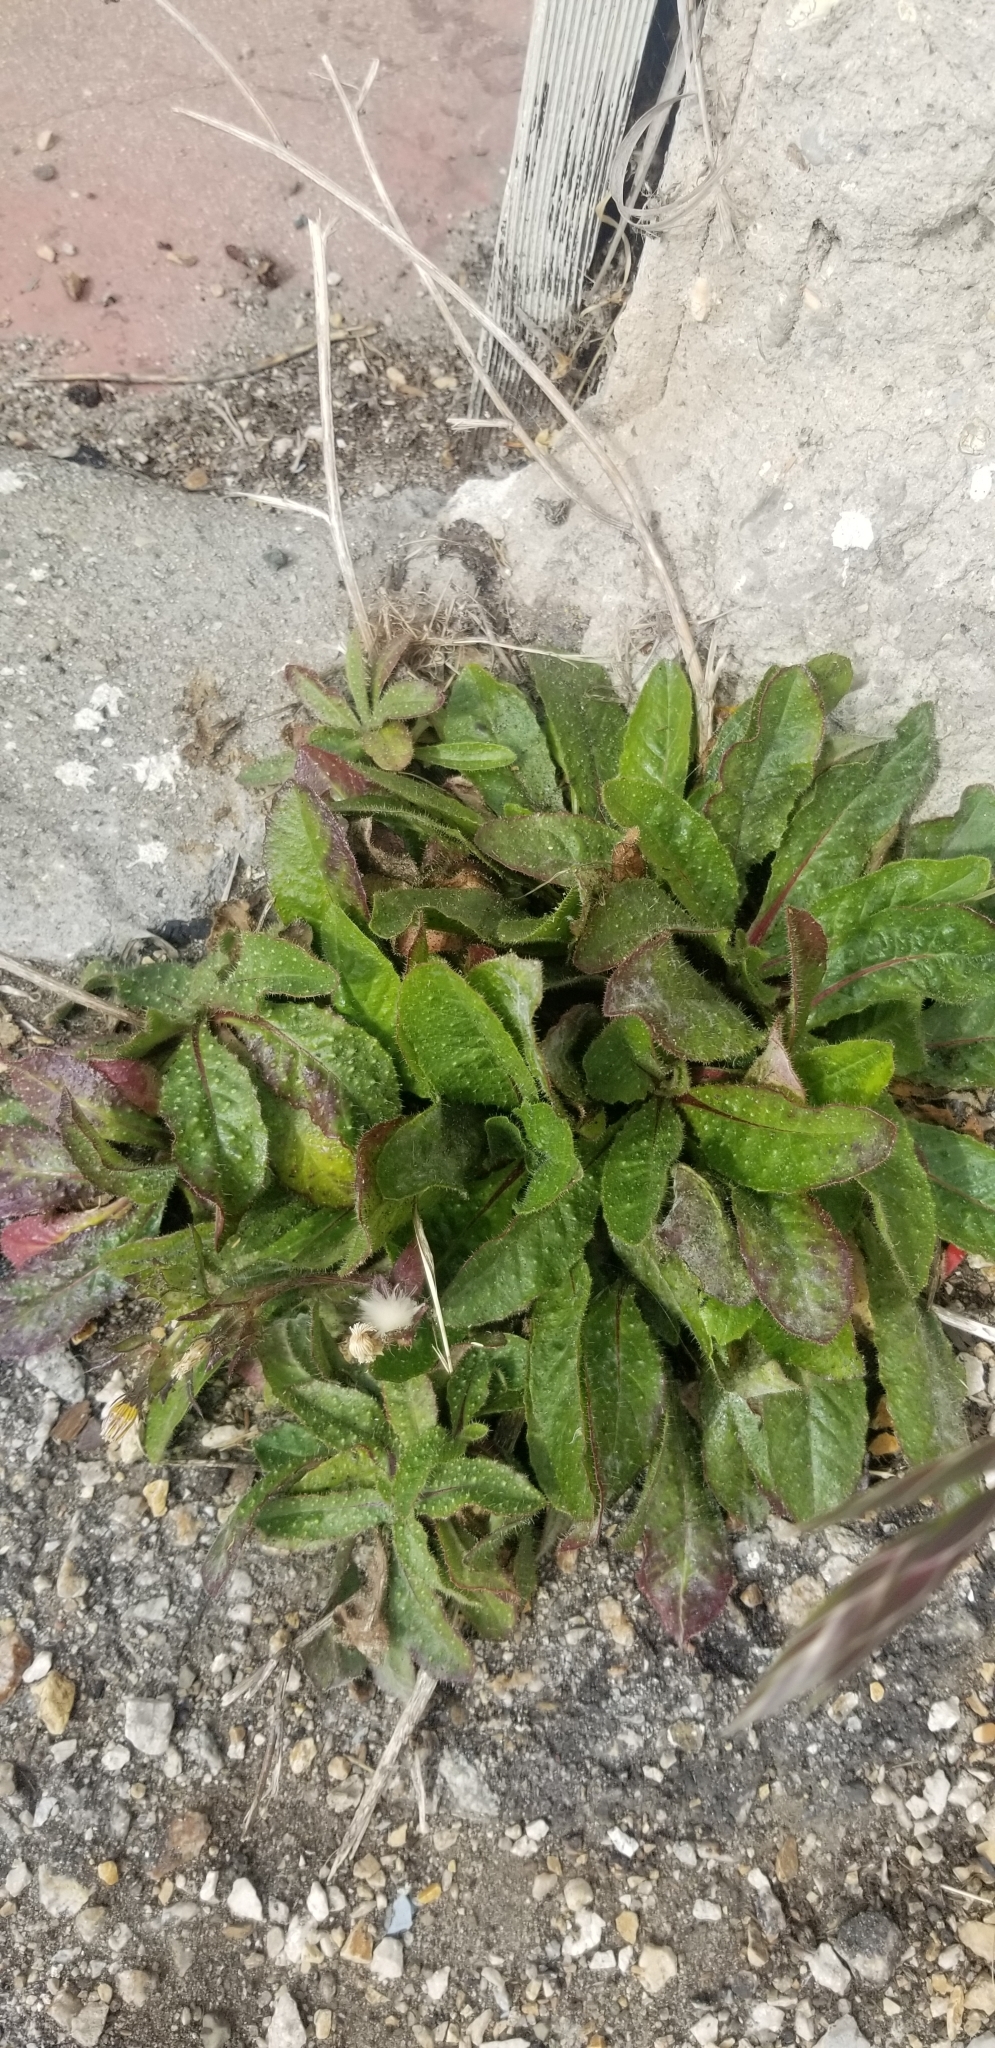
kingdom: Plantae
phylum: Tracheophyta
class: Magnoliopsida
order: Asterales
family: Asteraceae
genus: Helminthotheca
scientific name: Helminthotheca echioides
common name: Ox-tongue
